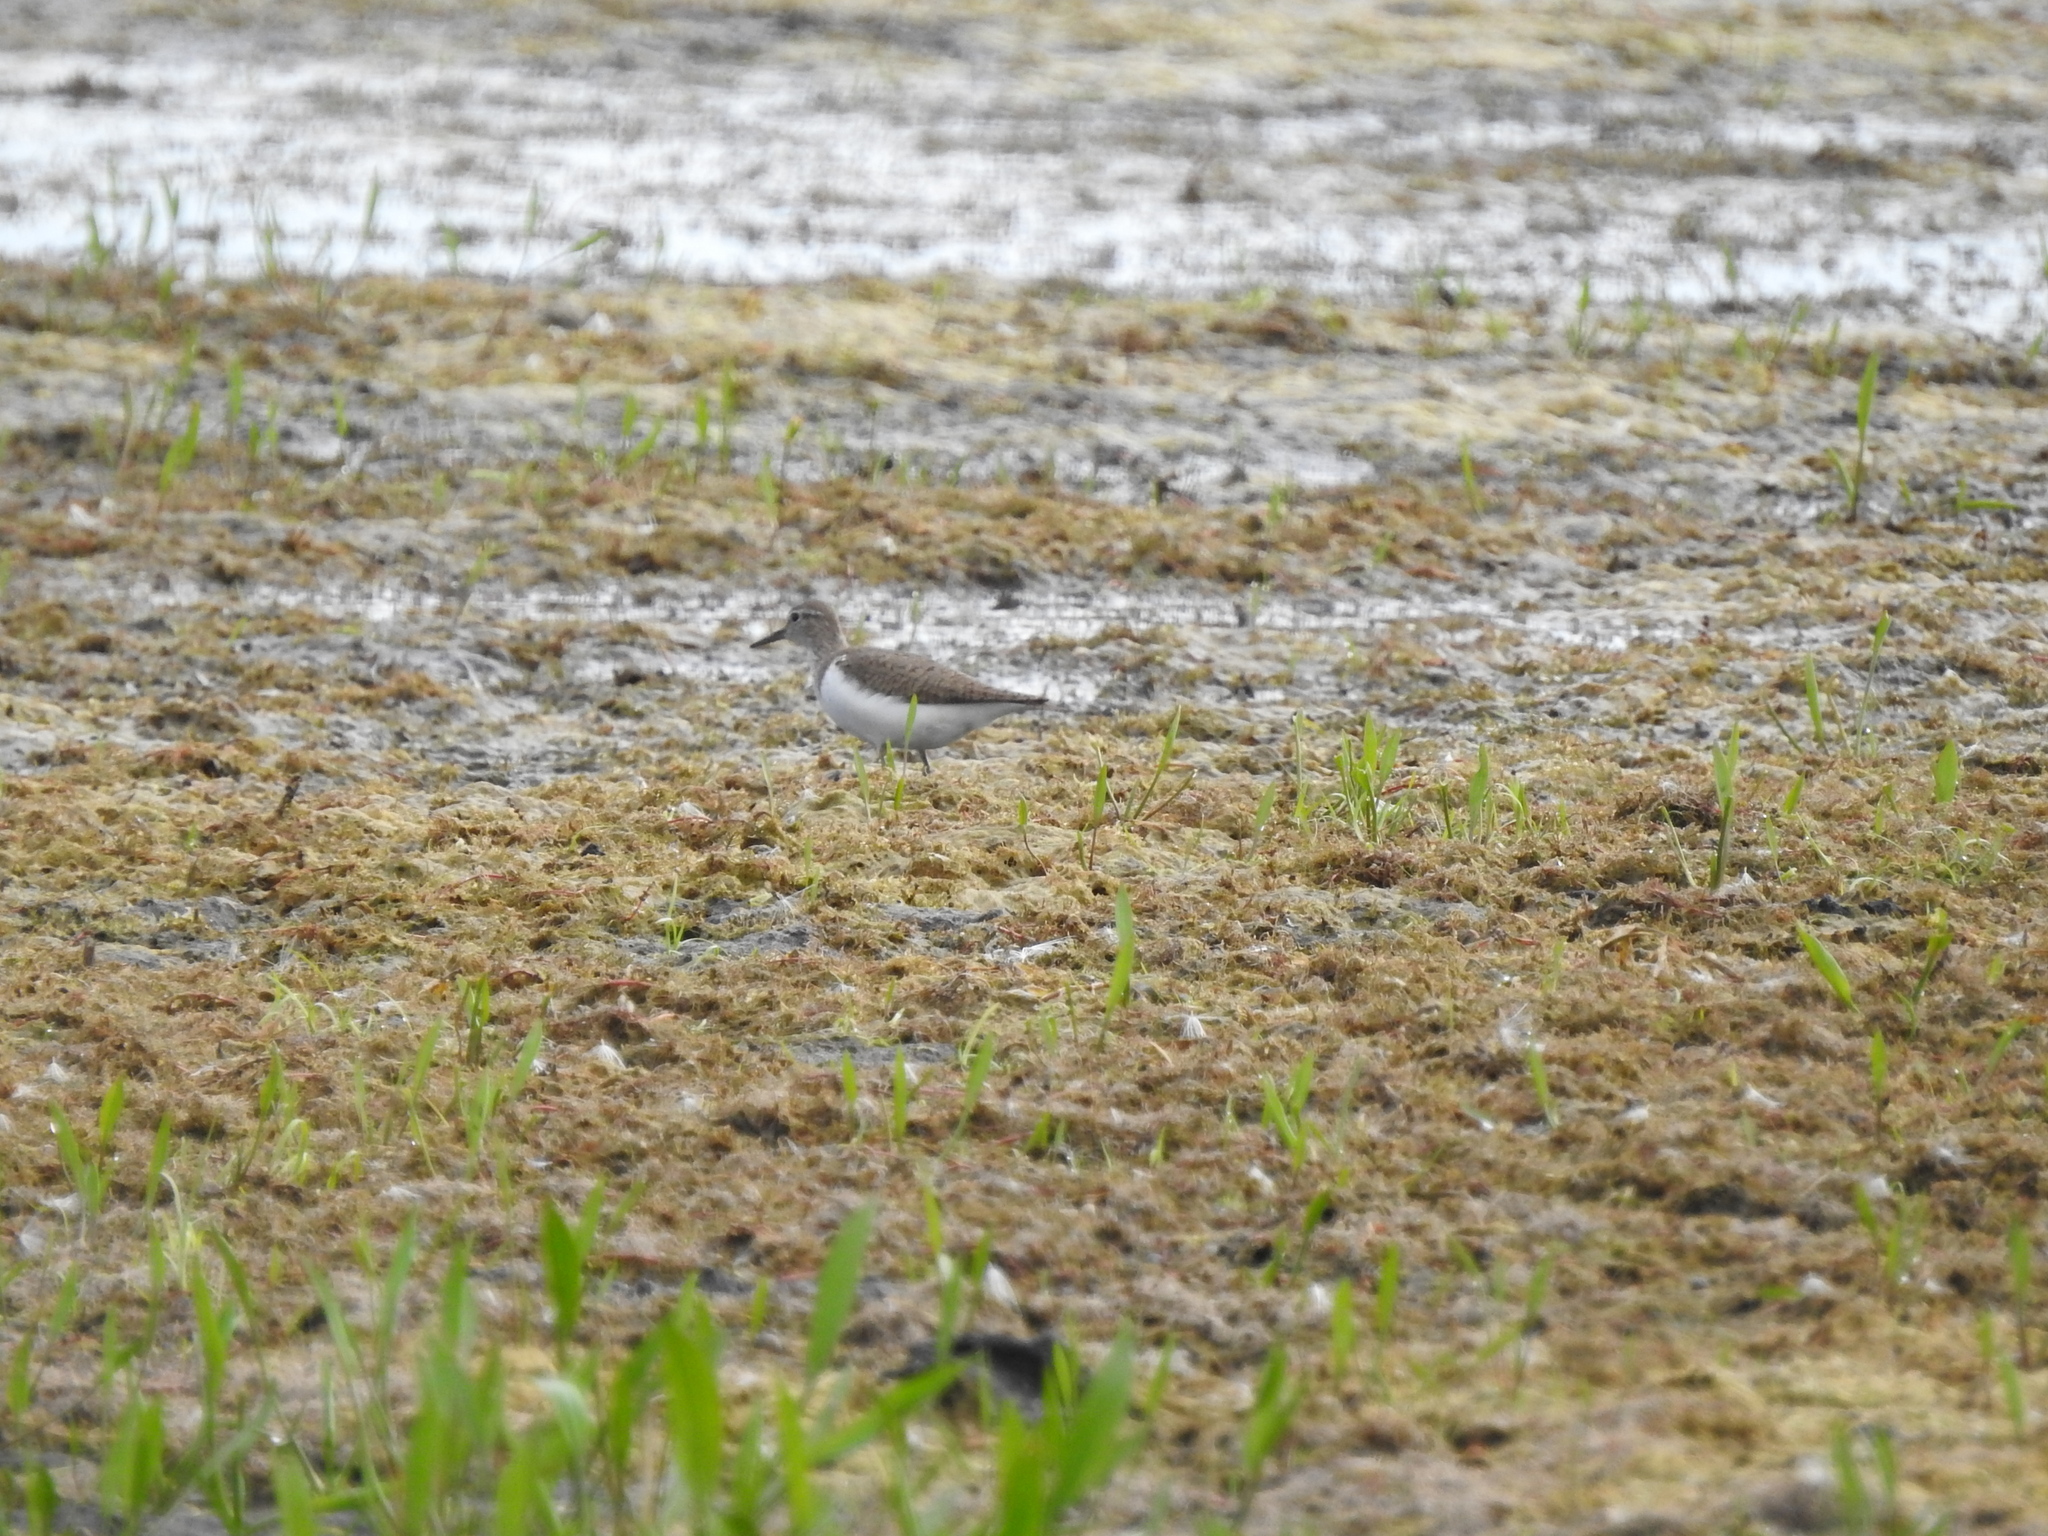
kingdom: Animalia
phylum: Chordata
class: Aves
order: Charadriiformes
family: Scolopacidae
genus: Actitis
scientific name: Actitis hypoleucos
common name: Common sandpiper
